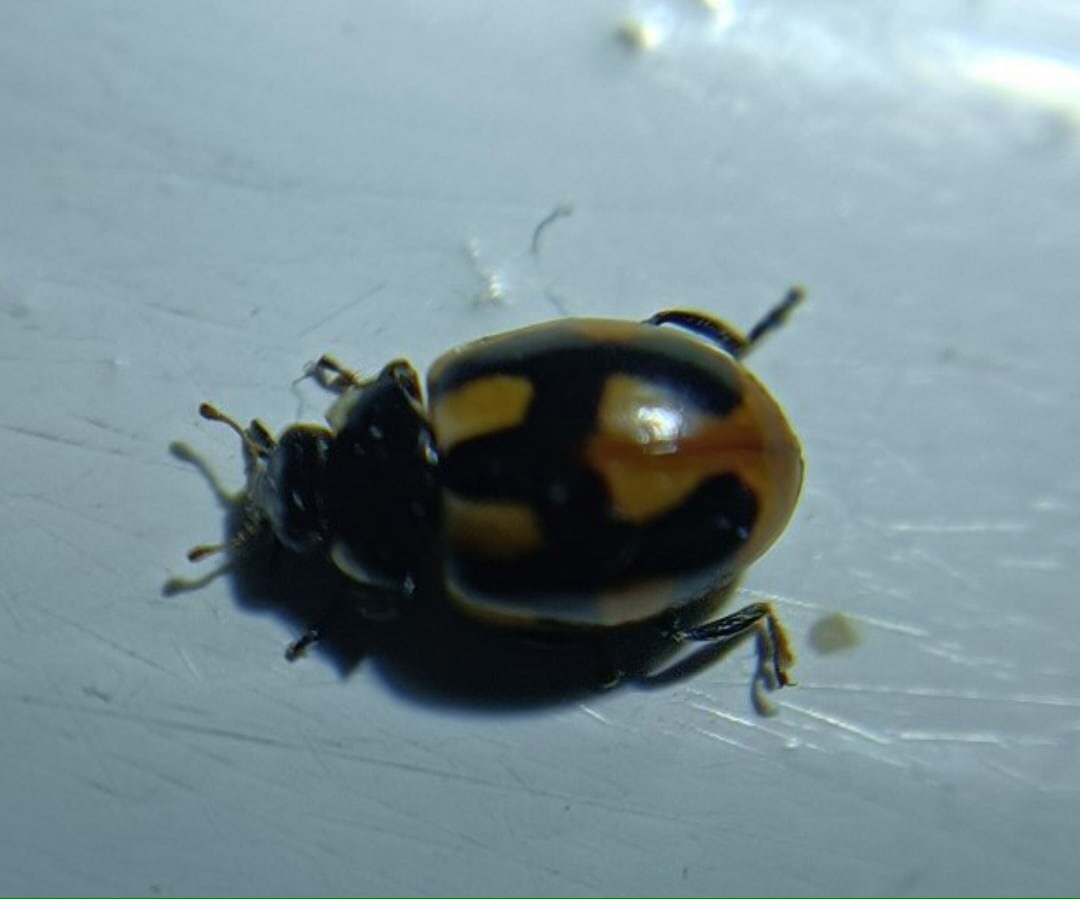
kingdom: Animalia
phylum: Arthropoda
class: Insecta
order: Coleoptera
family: Coccinellidae
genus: Coccinella
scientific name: Coccinella hieroglyphica
